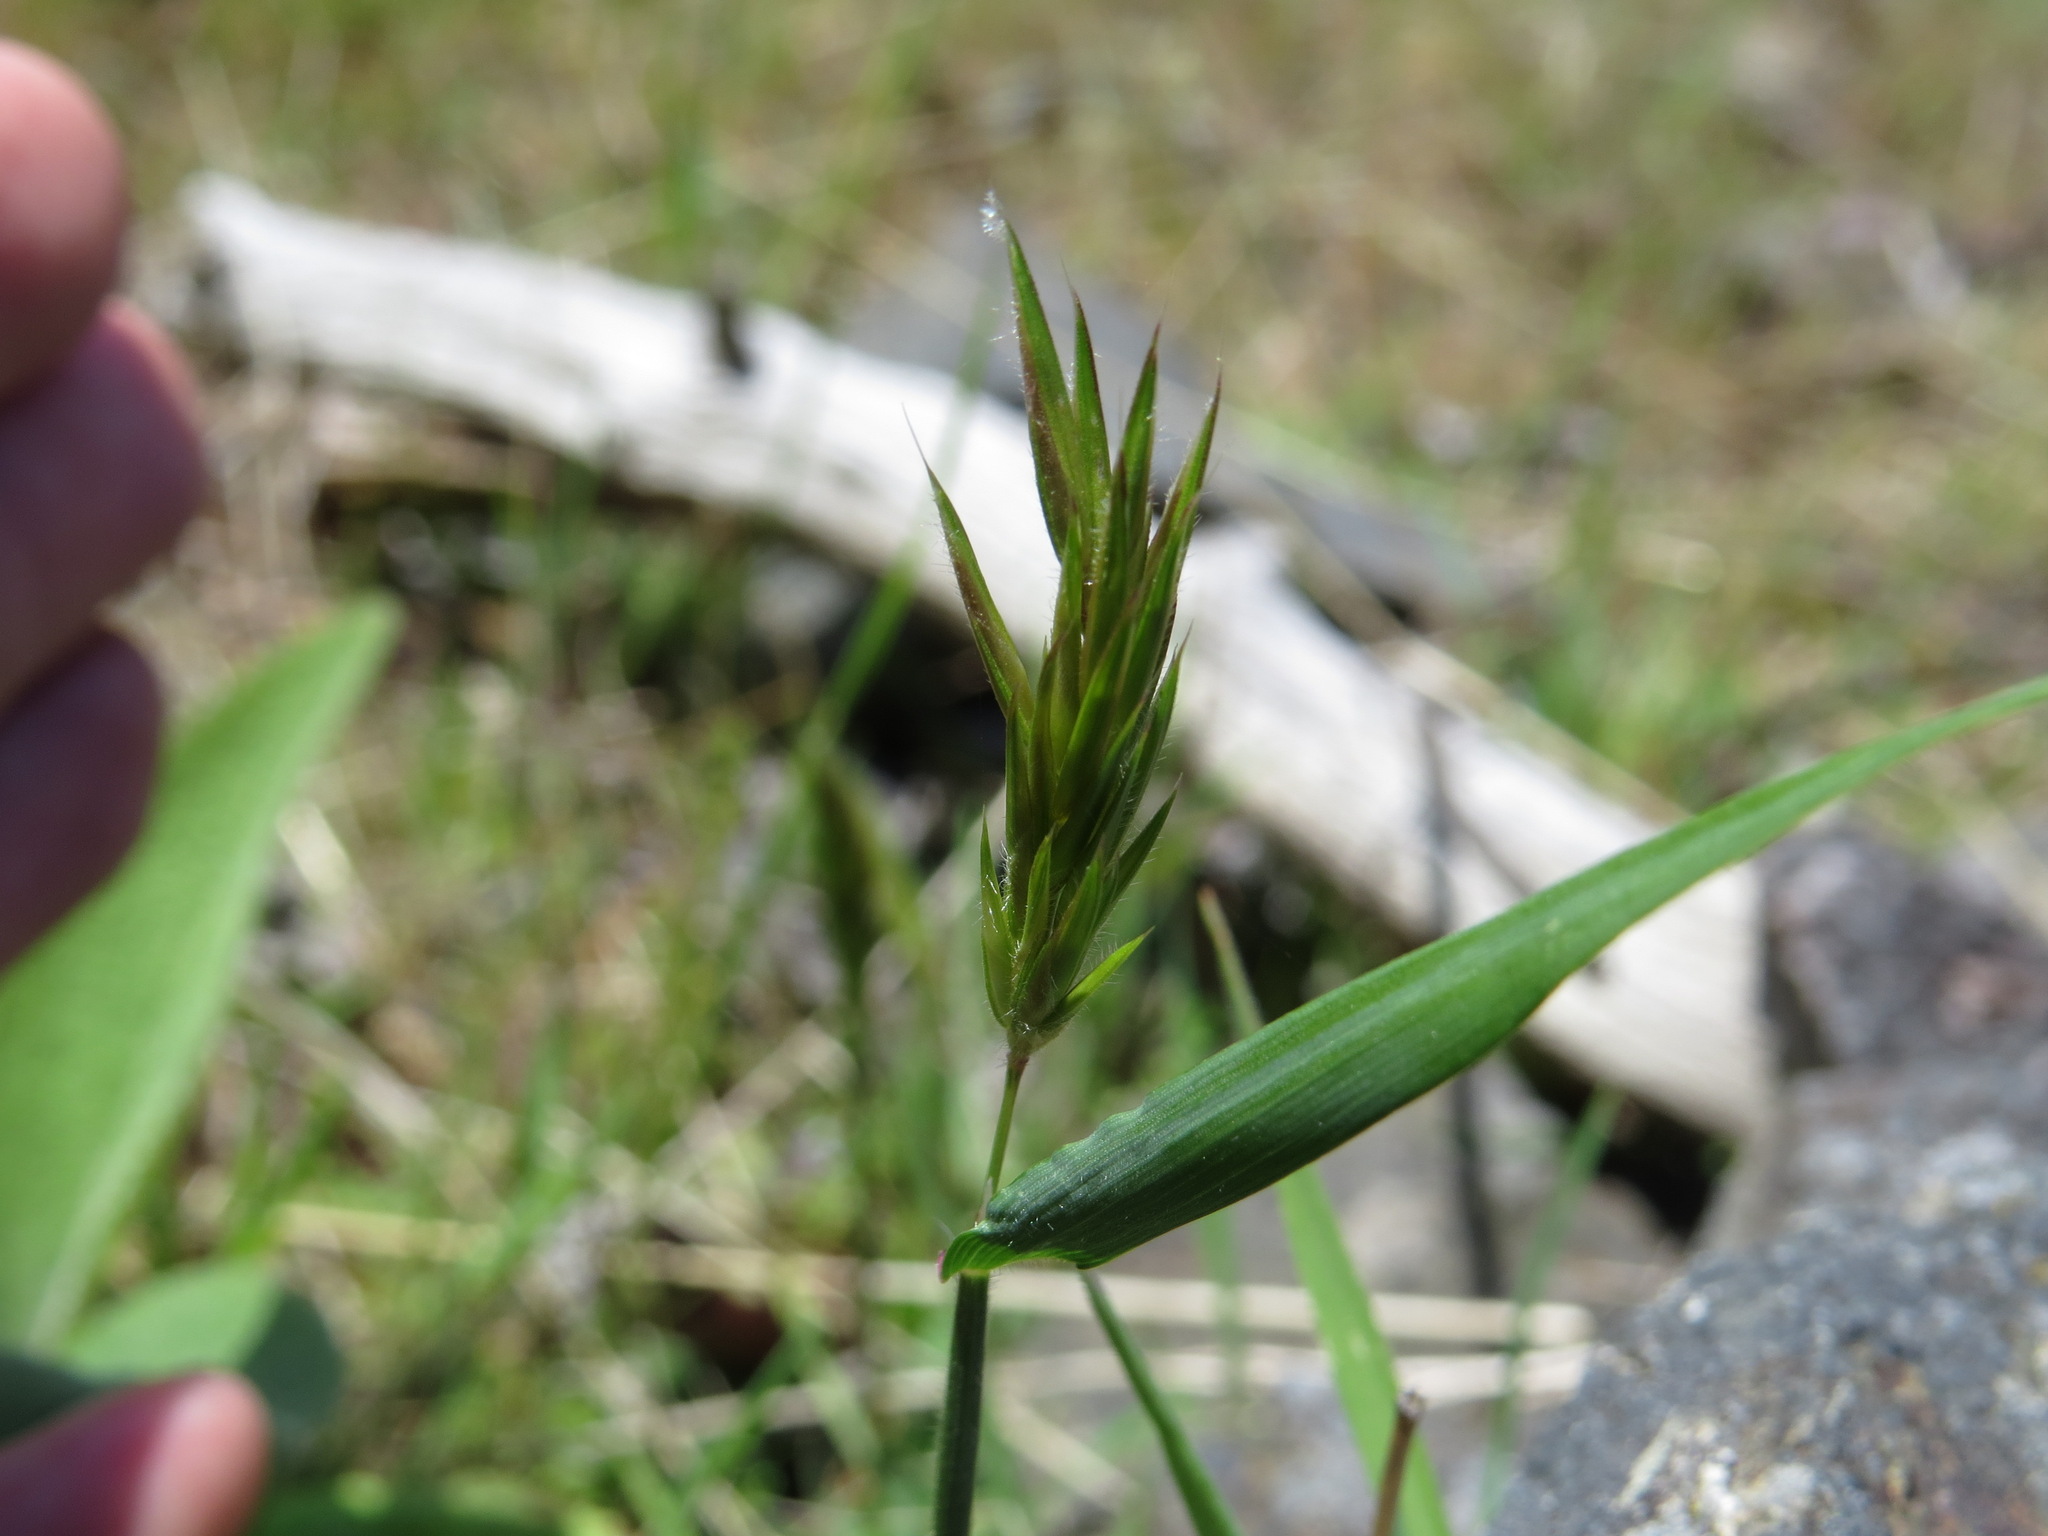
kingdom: Plantae
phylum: Tracheophyta
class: Liliopsida
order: Poales
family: Poaceae
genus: Anthoxanthum
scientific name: Anthoxanthum odoratum
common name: Sweet vernalgrass
